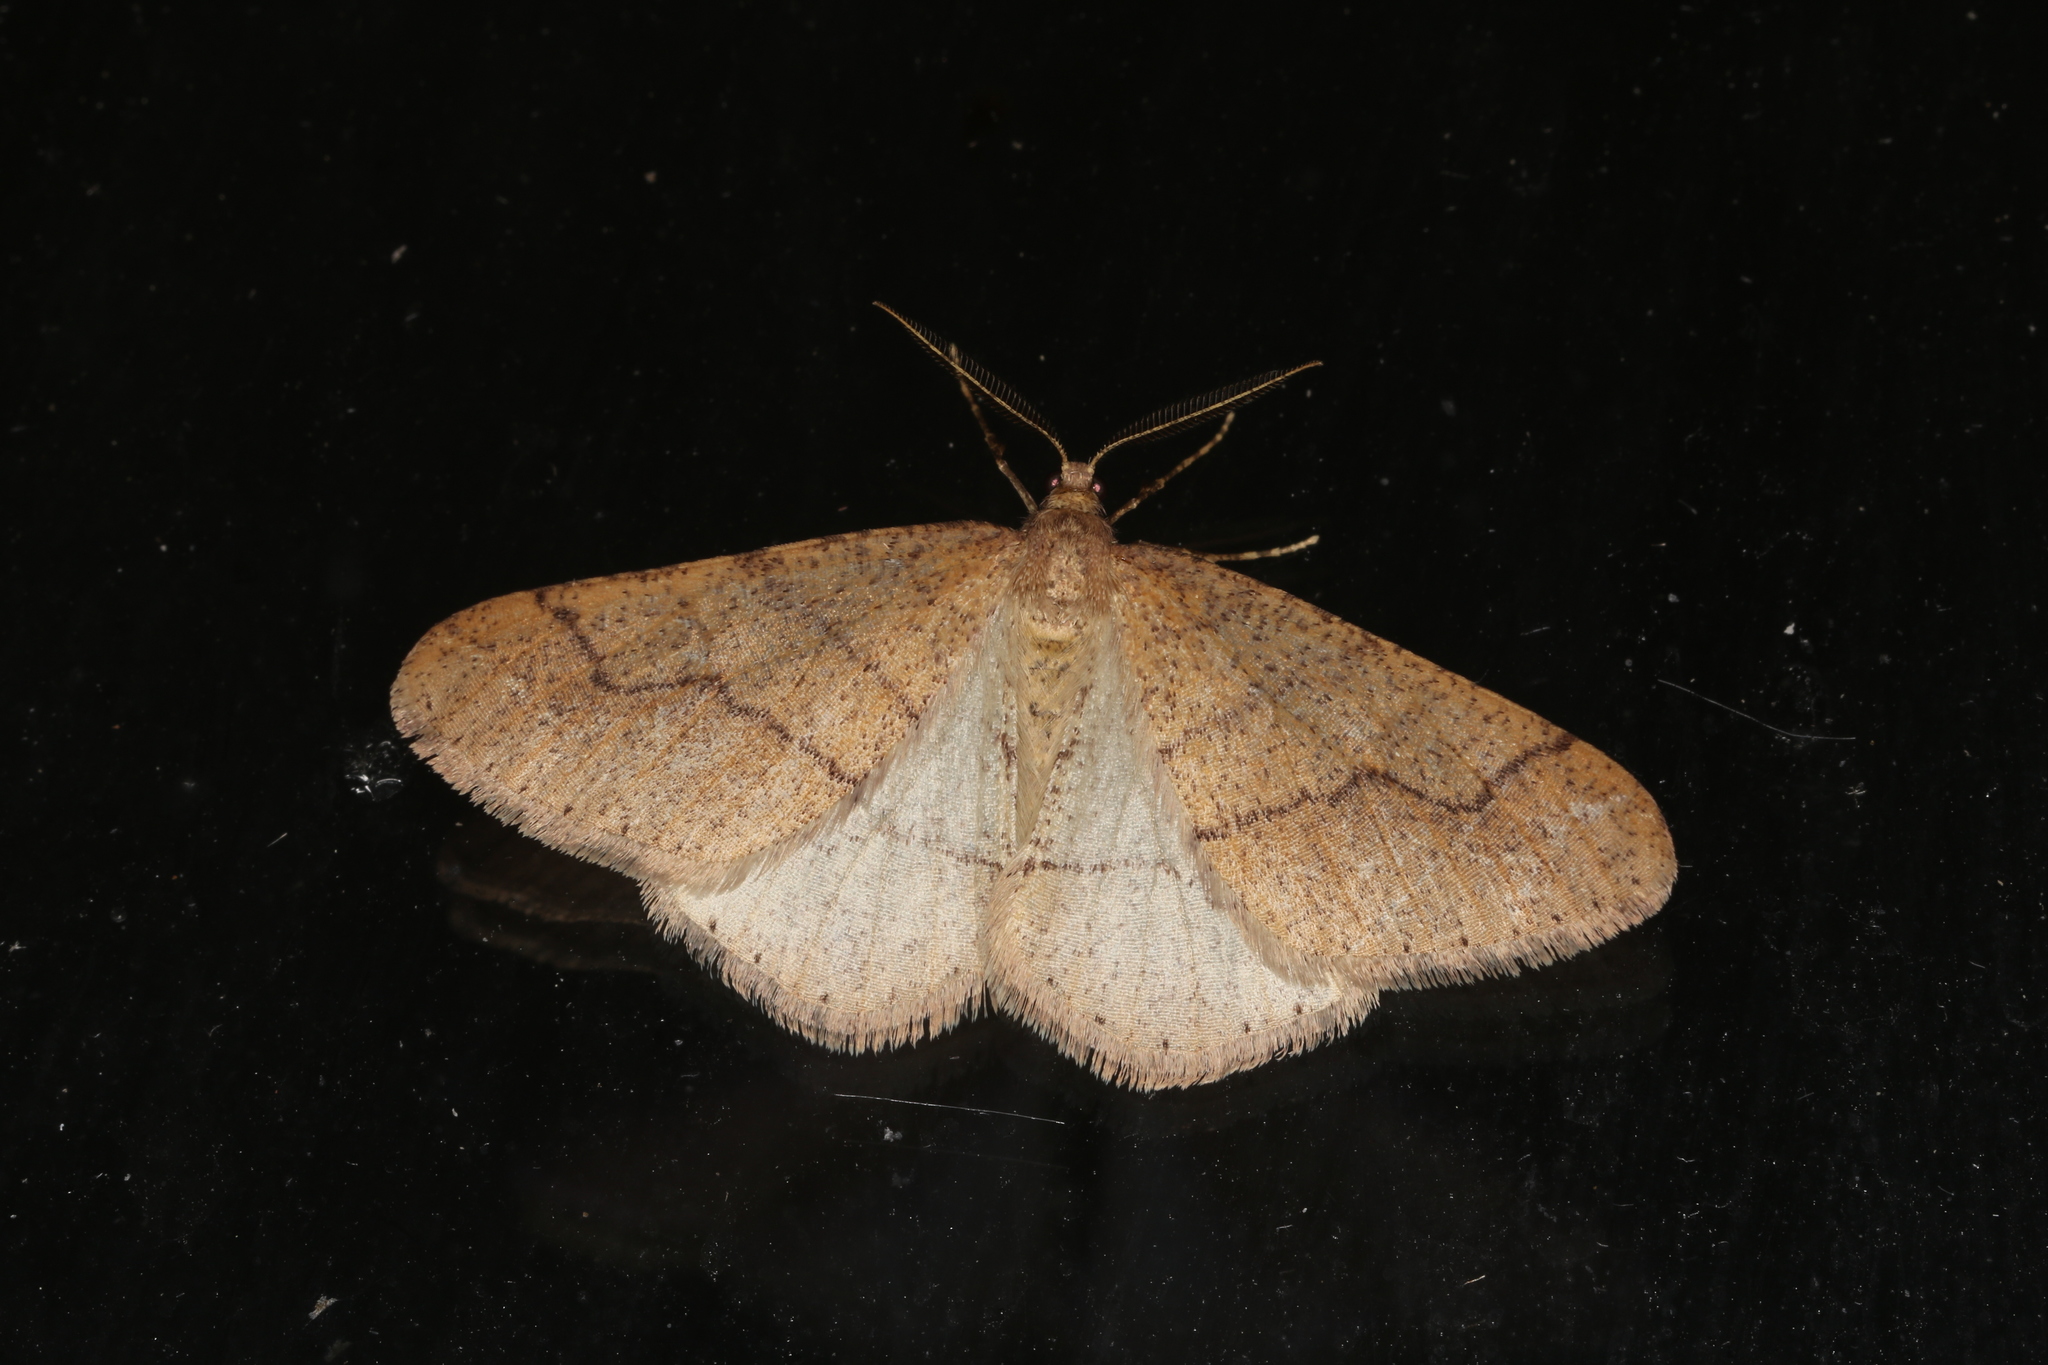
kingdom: Animalia
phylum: Arthropoda
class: Insecta
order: Lepidoptera
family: Geometridae
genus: Agriopis
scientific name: Agriopis marginaria
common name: Dotted border
